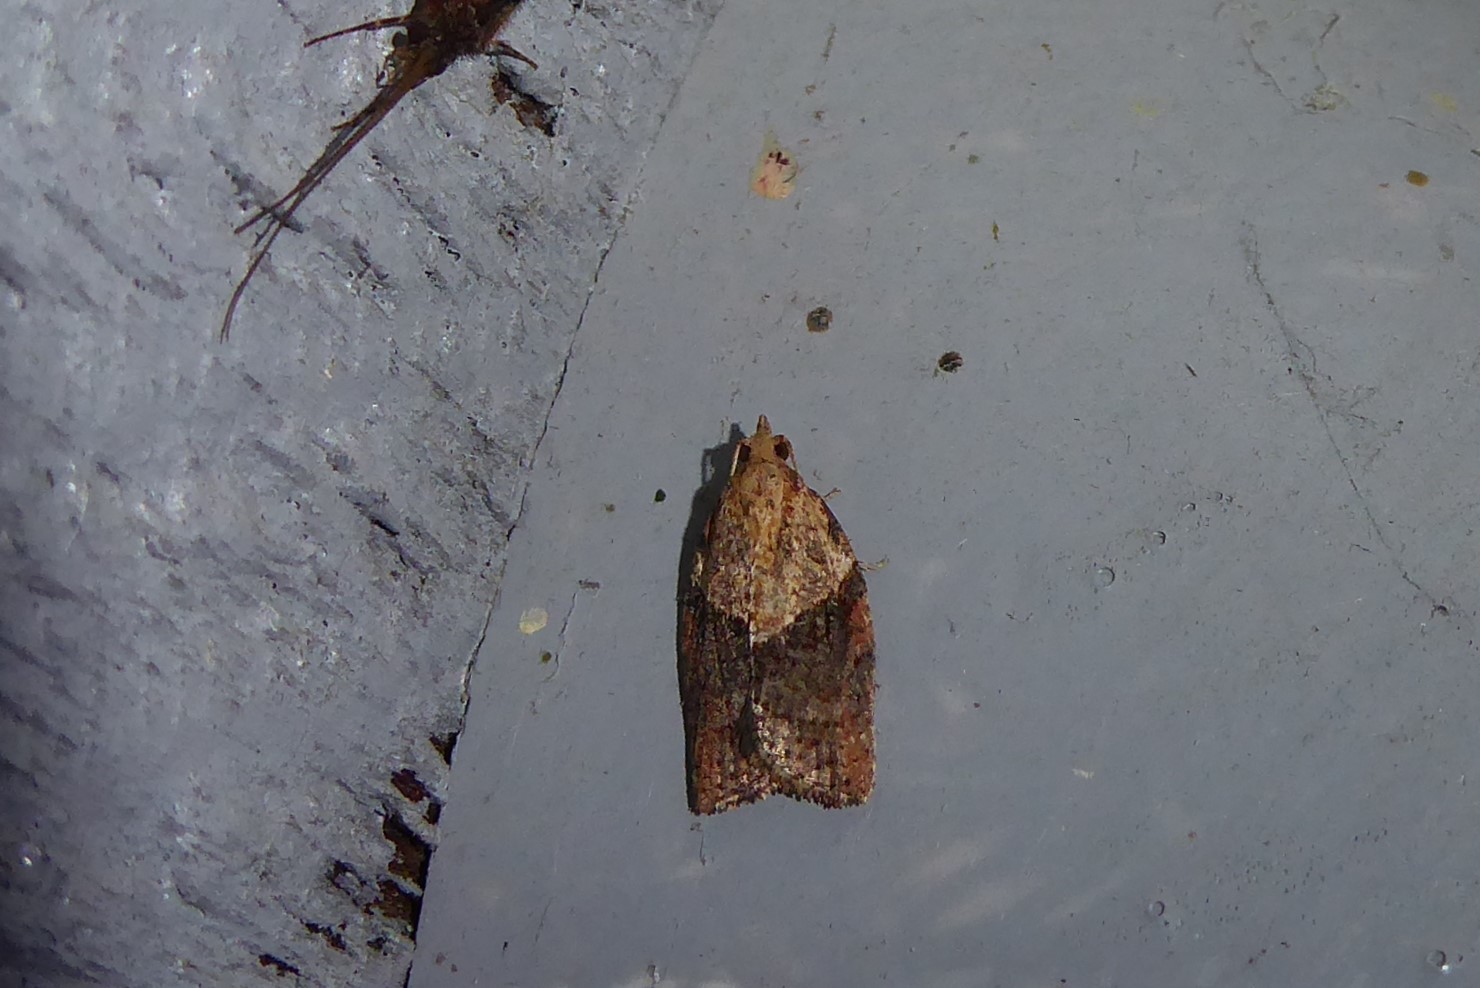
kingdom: Animalia
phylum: Arthropoda
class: Insecta
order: Lepidoptera
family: Tortricidae
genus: Epiphyas
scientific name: Epiphyas postvittana
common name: Light brown apple moth
